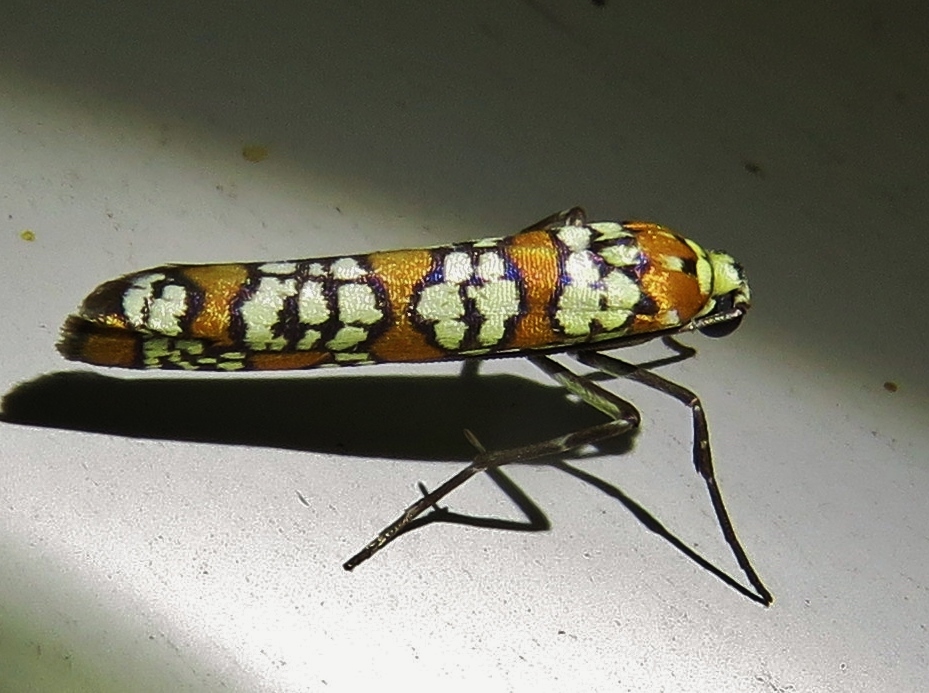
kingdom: Animalia
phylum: Arthropoda
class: Insecta
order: Lepidoptera
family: Attevidae
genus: Atteva
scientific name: Atteva punctella
